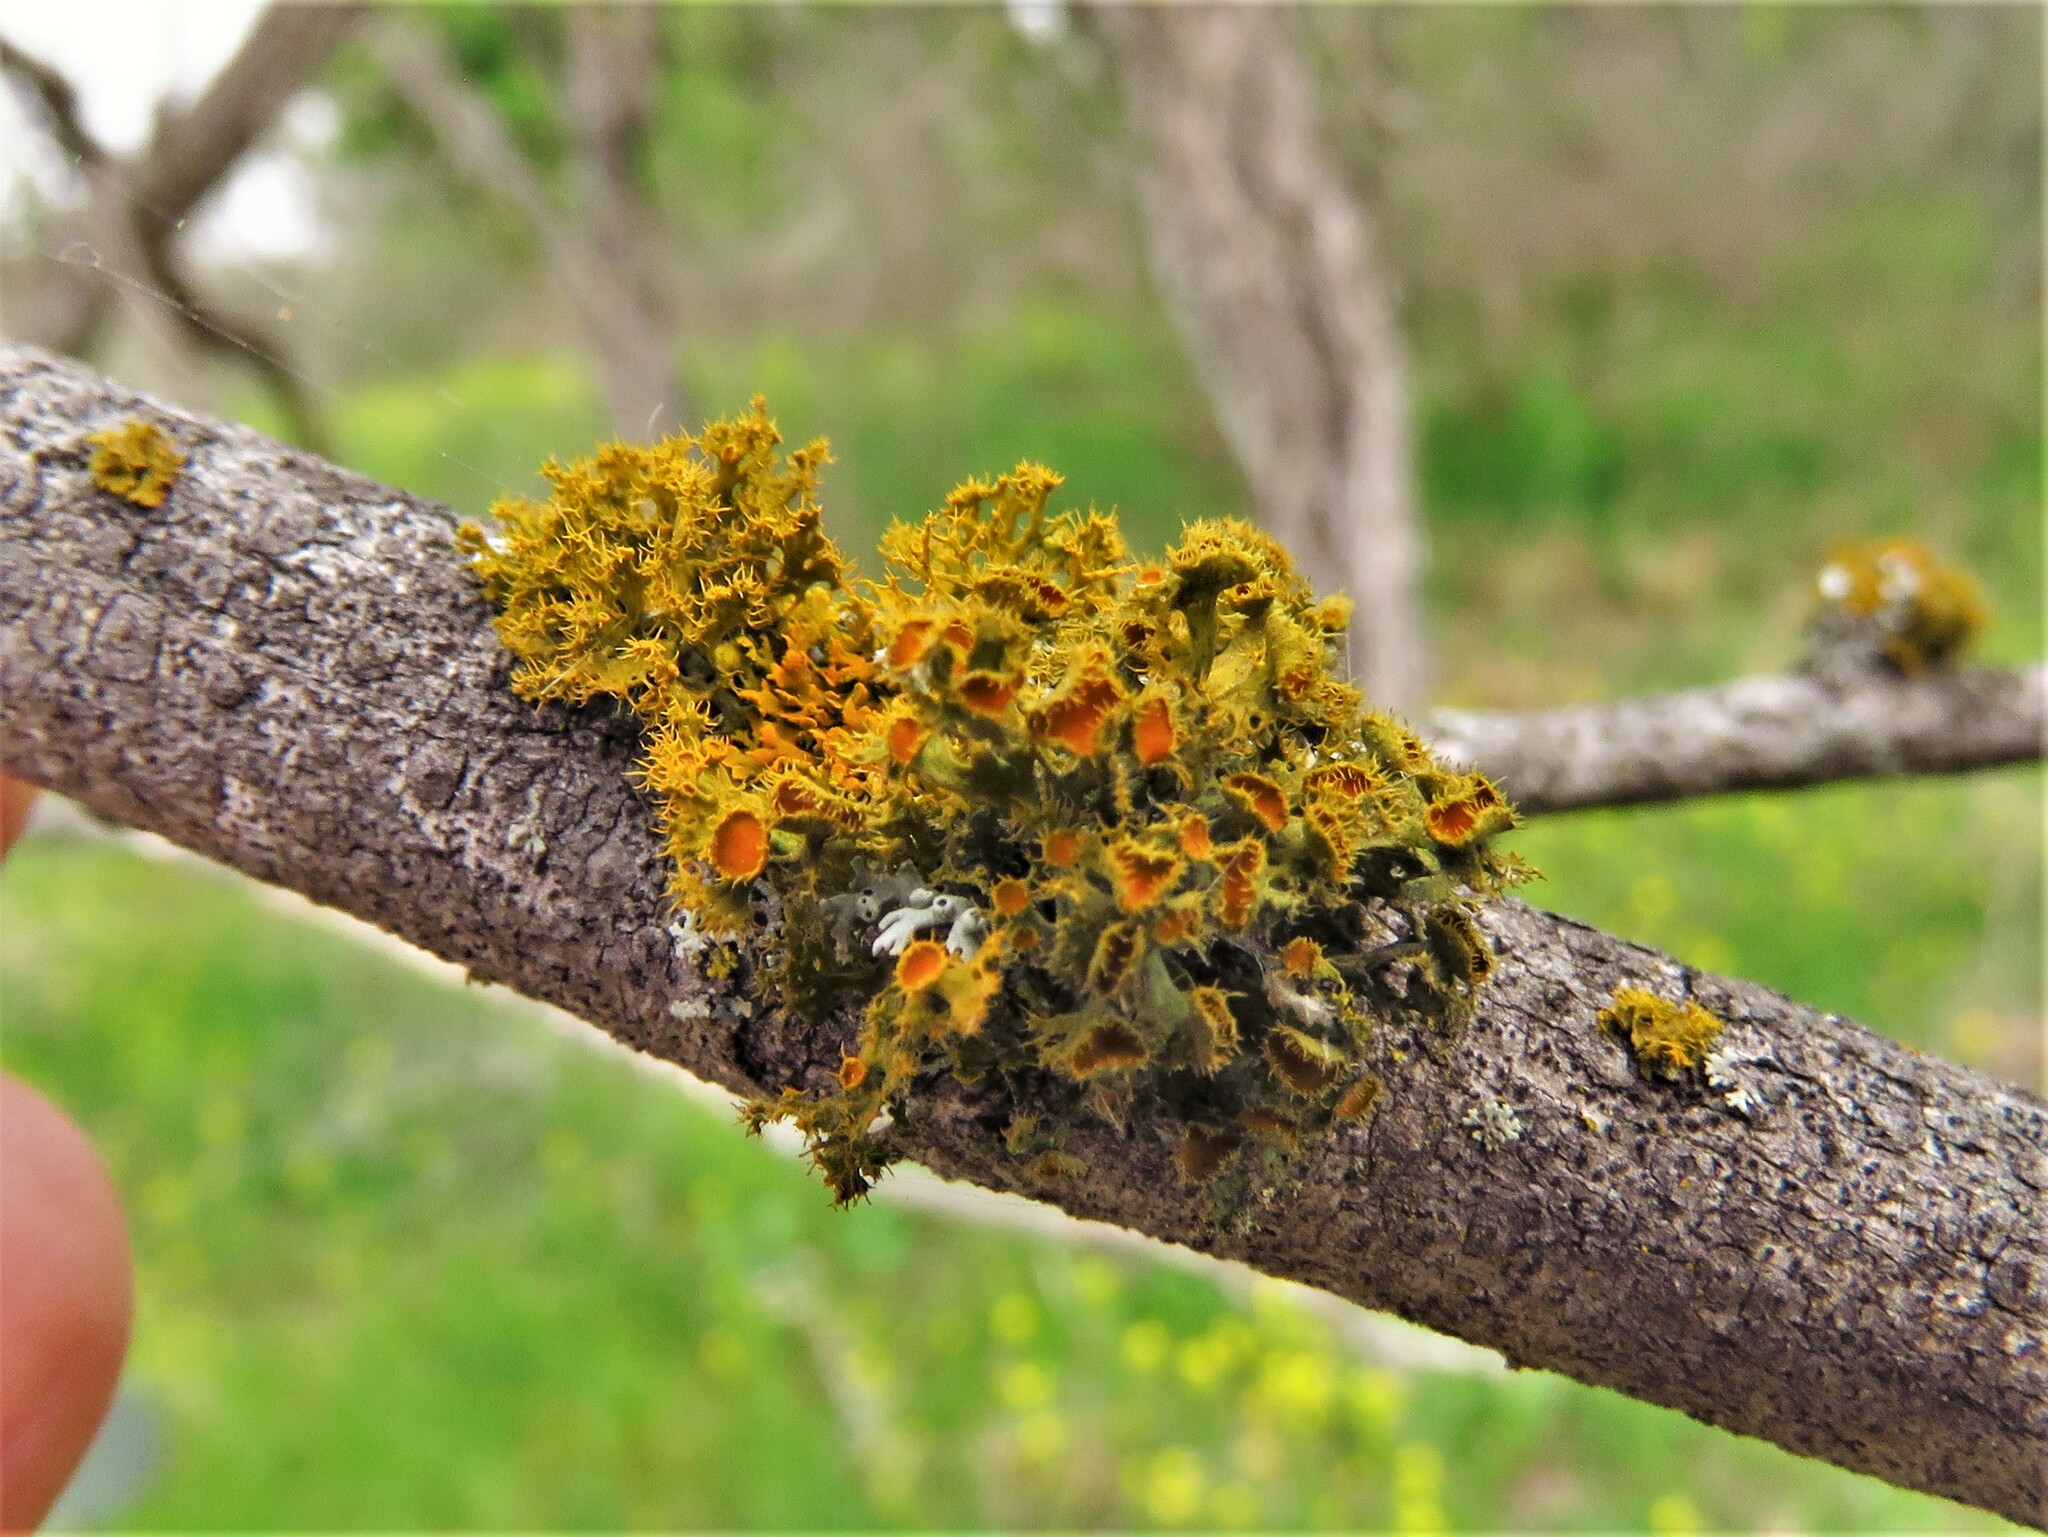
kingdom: Fungi
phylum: Ascomycota
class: Lecanoromycetes
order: Teloschistales
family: Teloschistaceae
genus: Niorma
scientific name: Niorma chrysophthalma
